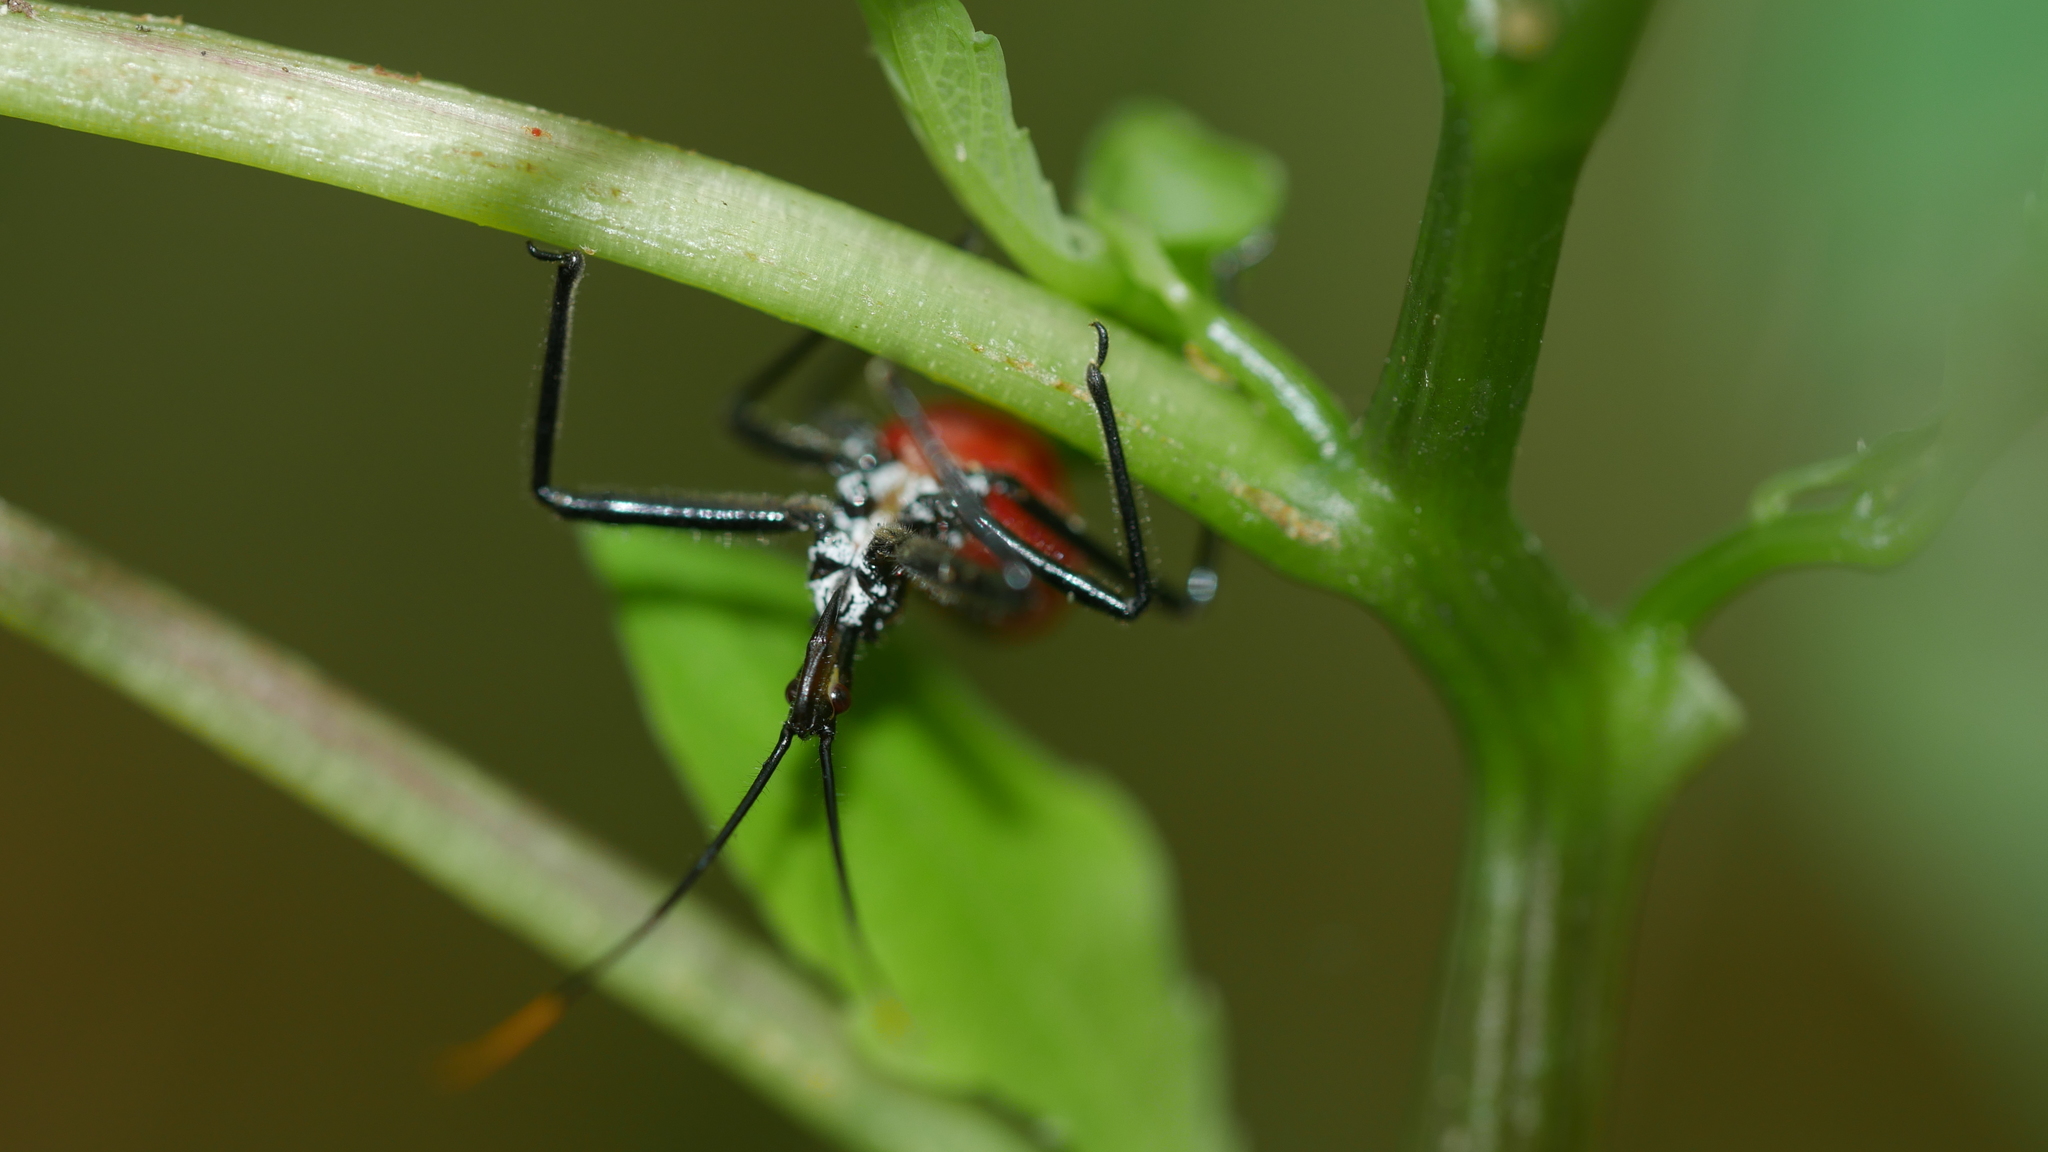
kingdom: Animalia
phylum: Arthropoda
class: Insecta
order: Hemiptera
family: Reduviidae
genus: Arilus
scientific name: Arilus cristatus
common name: North american wheel bug
